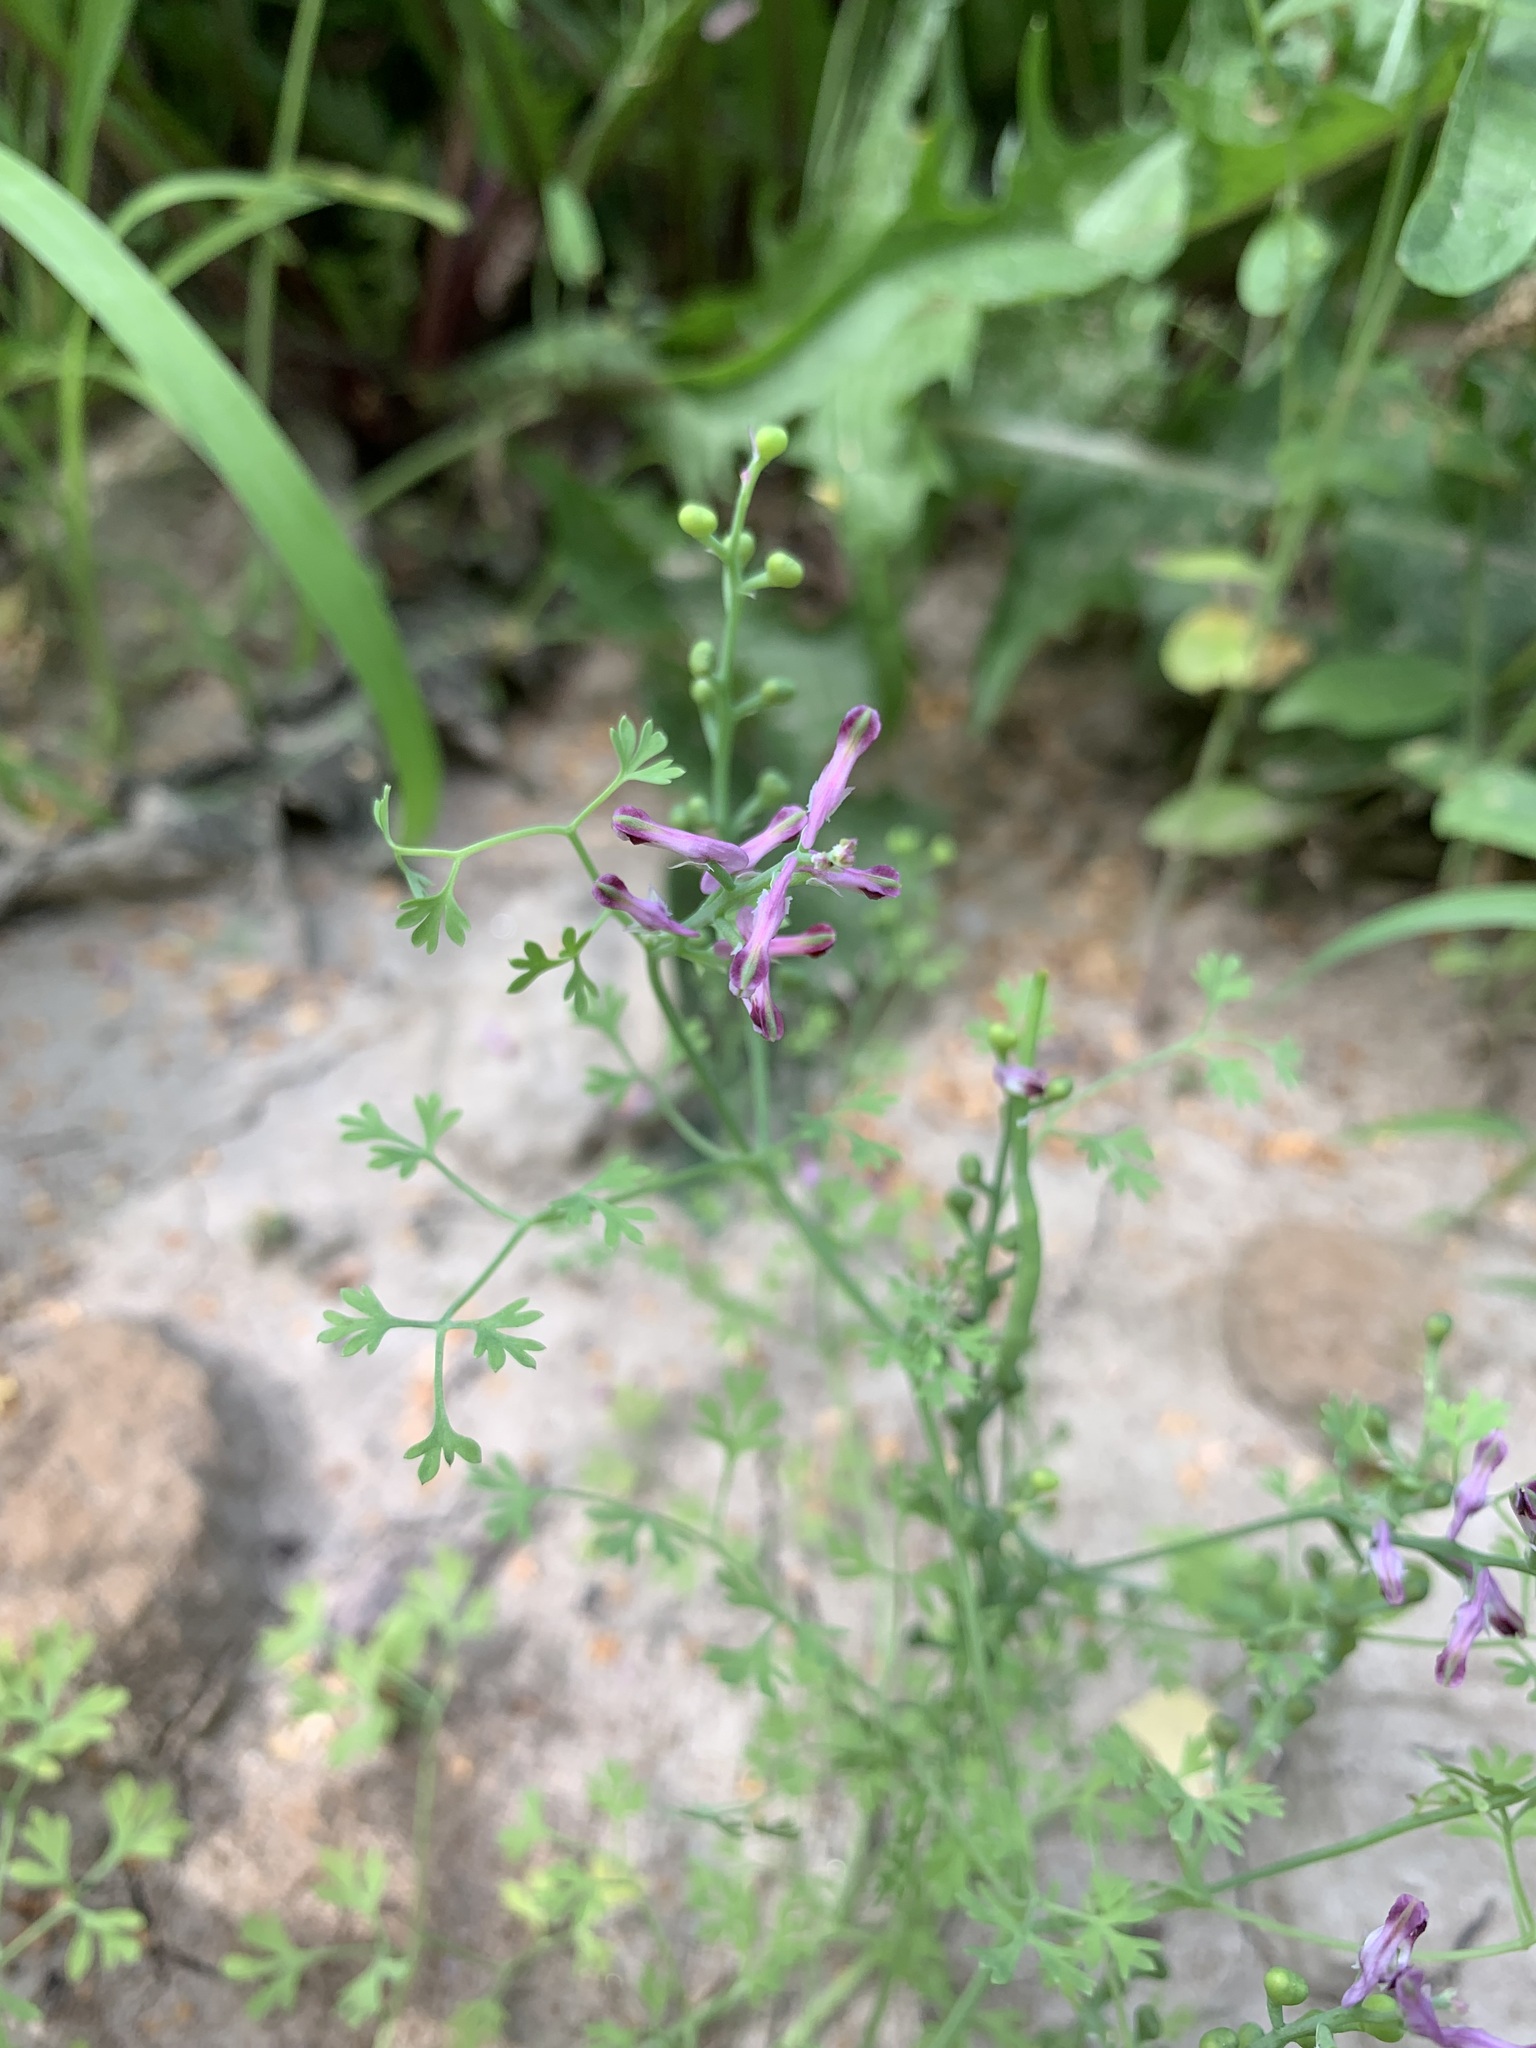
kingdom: Plantae
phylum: Tracheophyta
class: Magnoliopsida
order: Ranunculales
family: Papaveraceae
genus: Fumaria
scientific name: Fumaria officinalis
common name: Common fumitory
